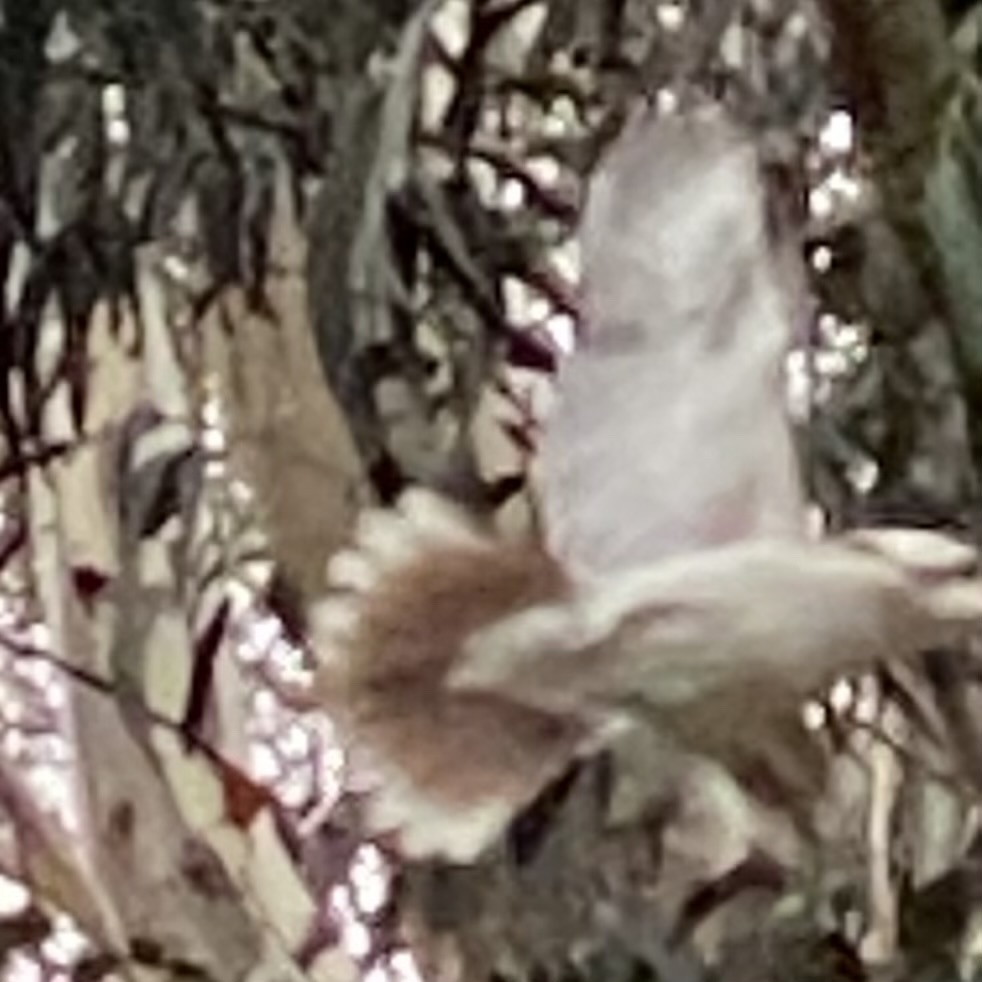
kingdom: Animalia
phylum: Chordata
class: Aves
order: Coraciiformes
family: Alcedinidae
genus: Dacelo
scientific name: Dacelo novaeguineae
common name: Laughing kookaburra
